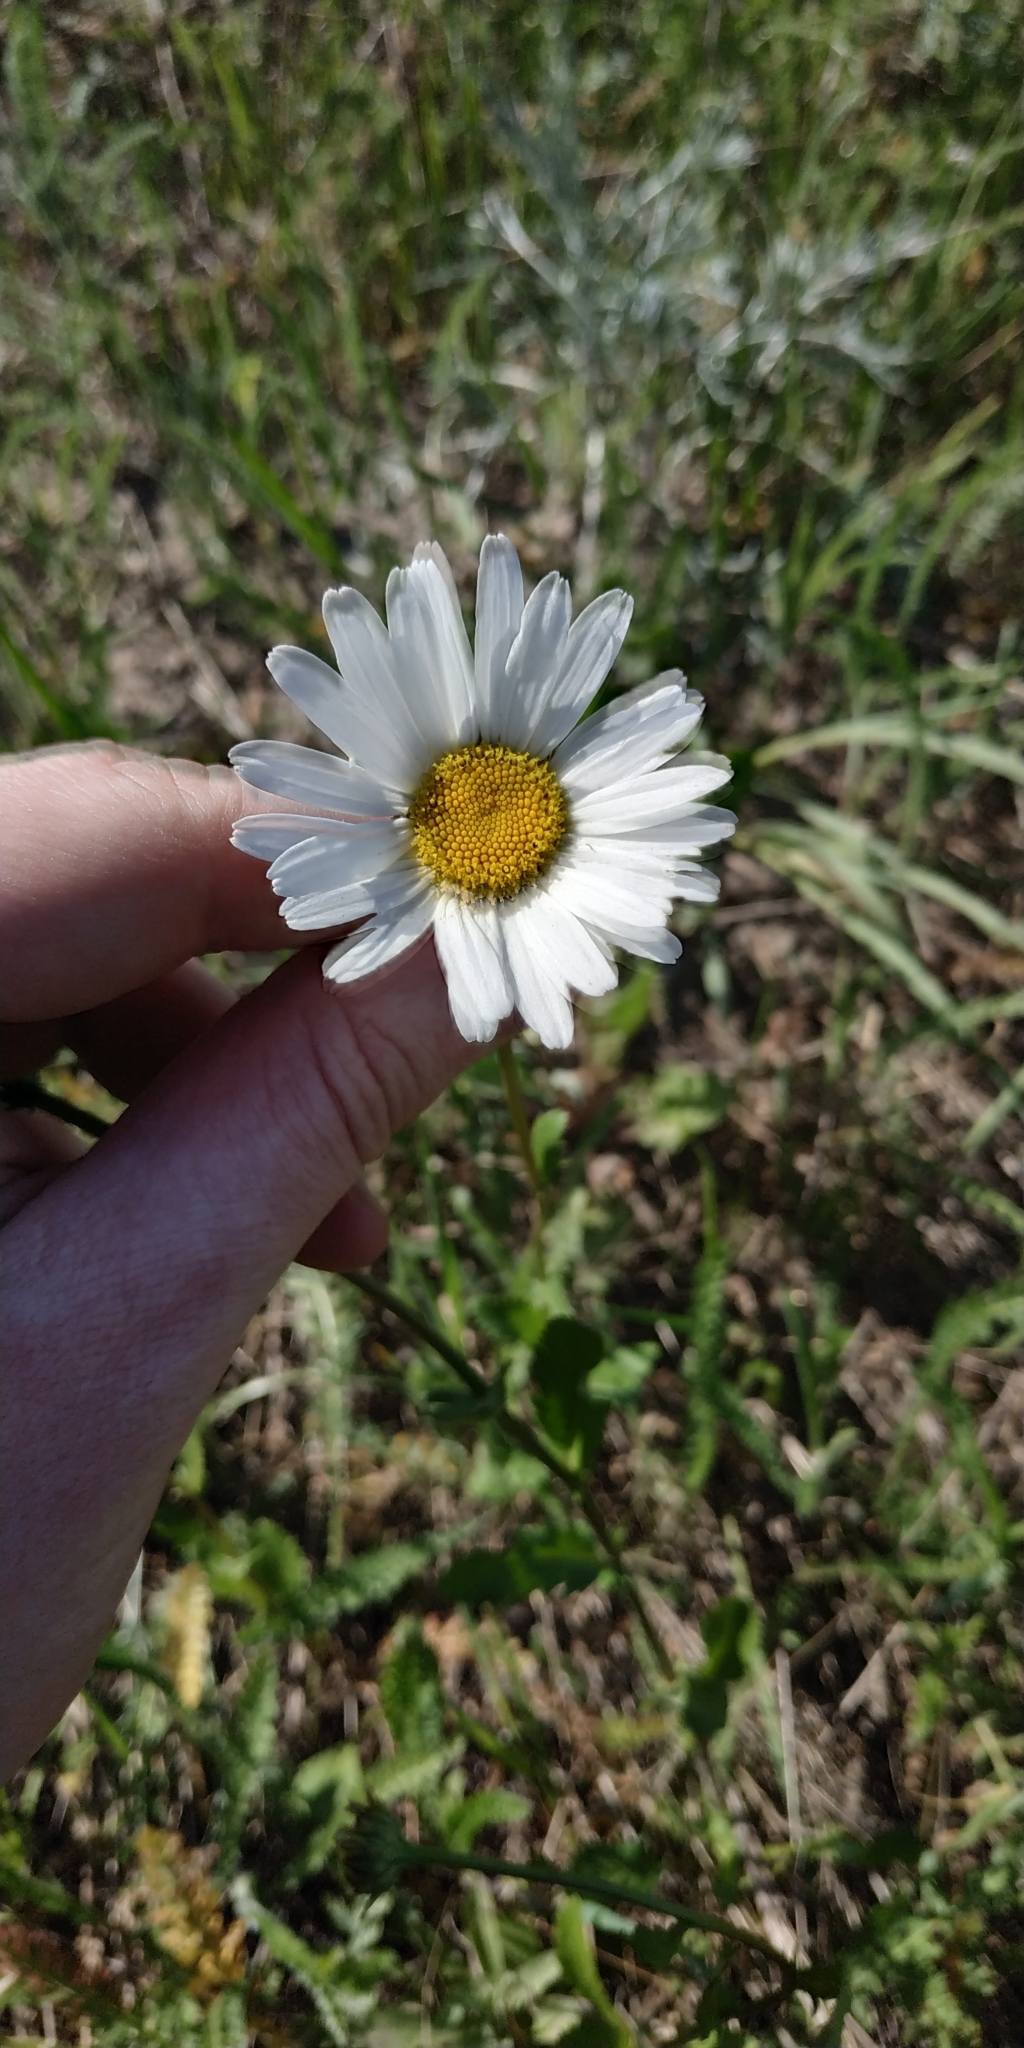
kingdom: Plantae
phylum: Tracheophyta
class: Magnoliopsida
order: Asterales
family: Asteraceae
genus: Leucanthemum
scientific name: Leucanthemum ircutianum
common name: Daisy
